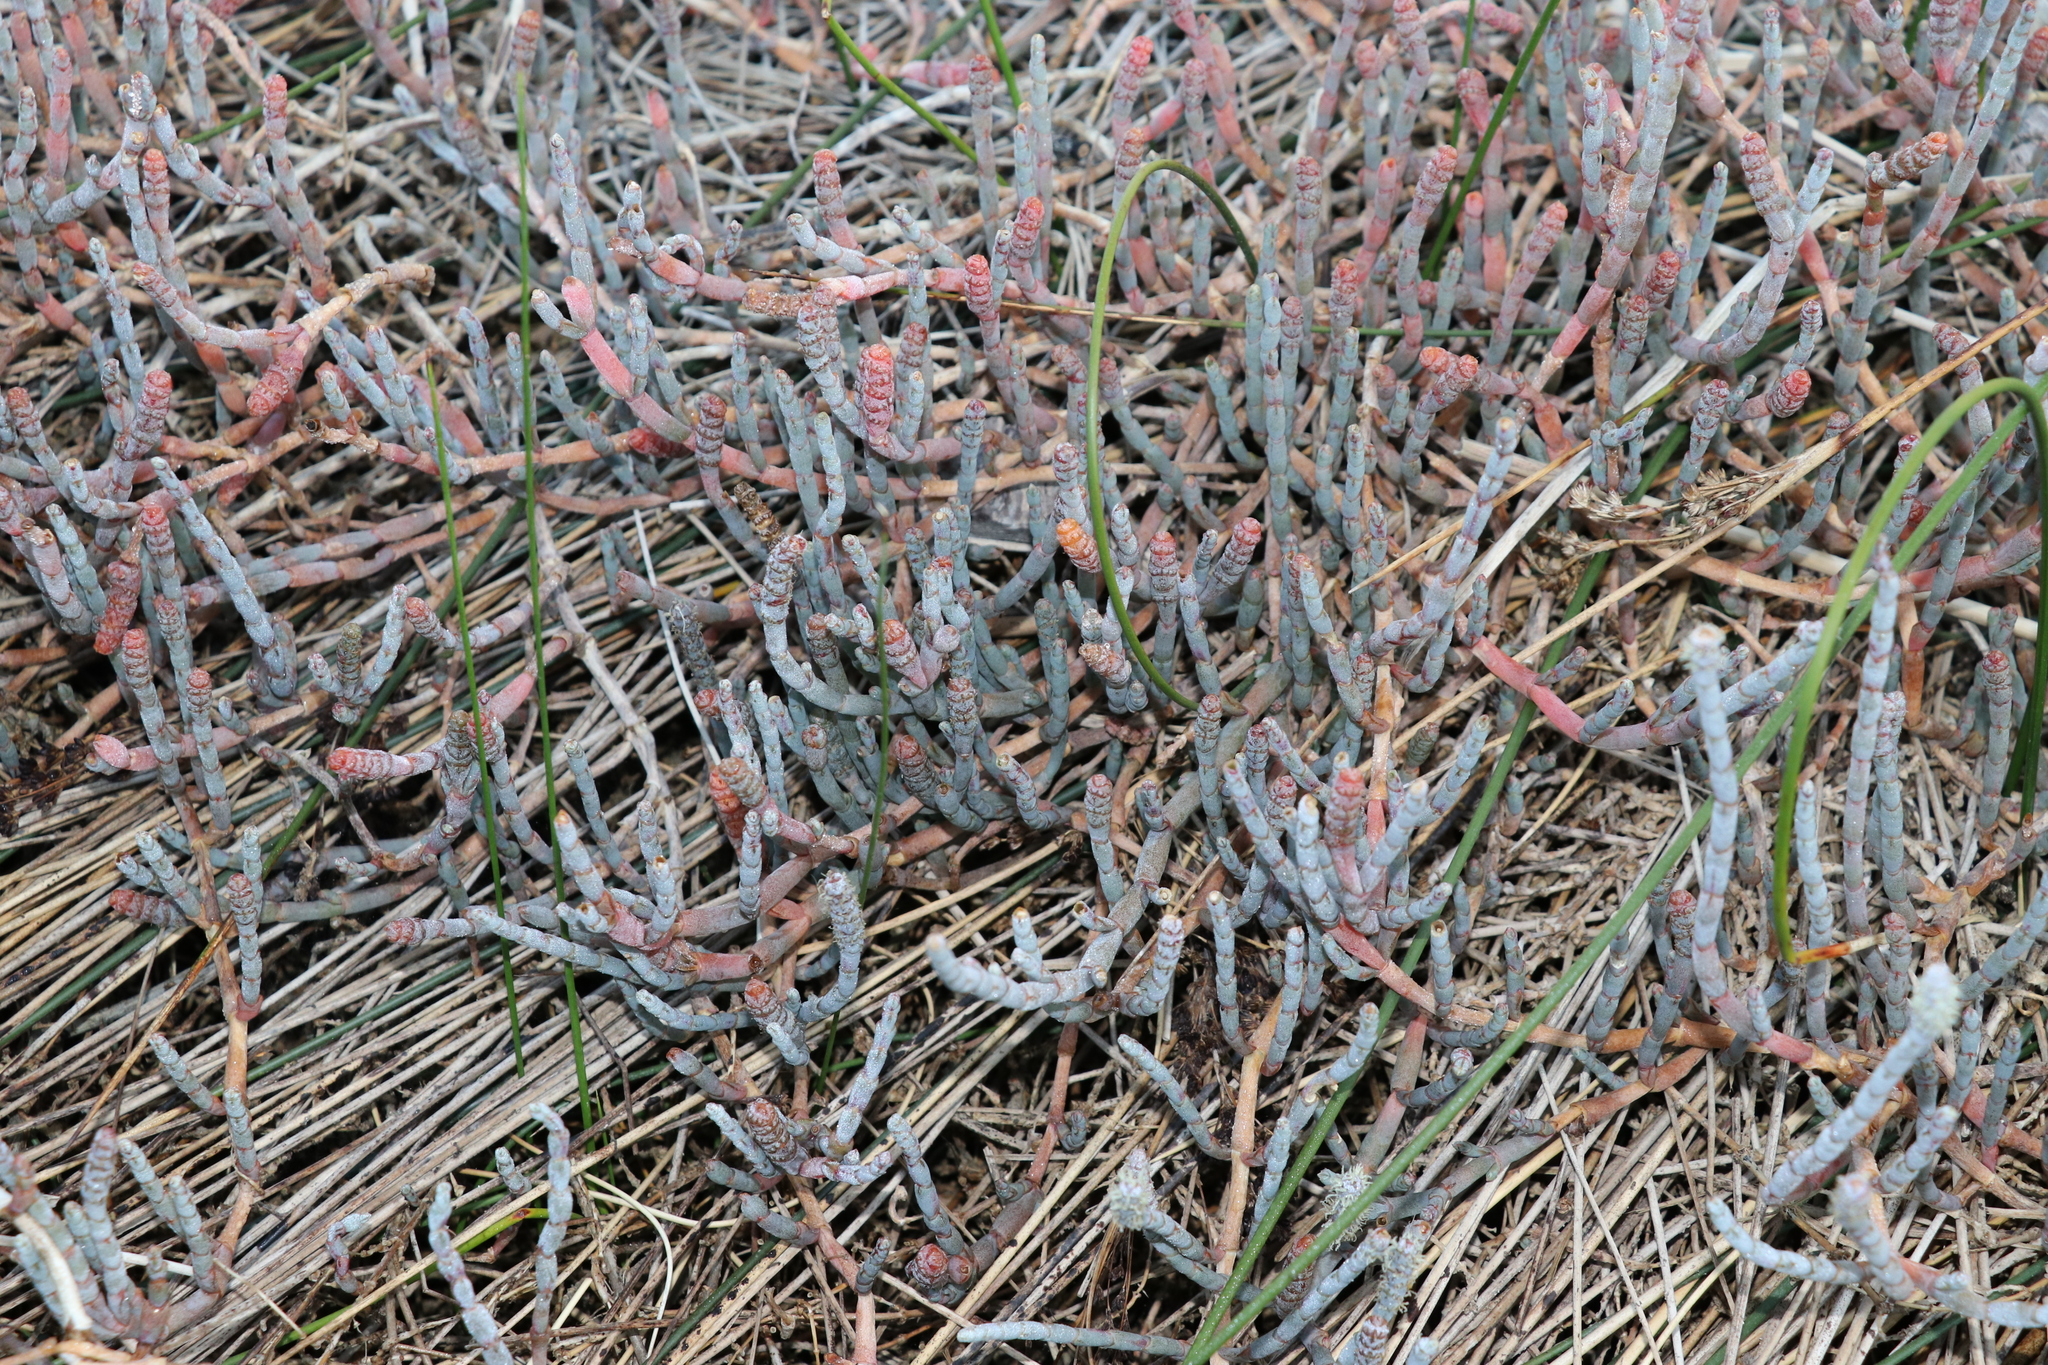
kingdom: Plantae
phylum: Tracheophyta
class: Magnoliopsida
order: Caryophyllales
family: Amaranthaceae
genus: Salicornia
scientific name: Salicornia quinqueflora
